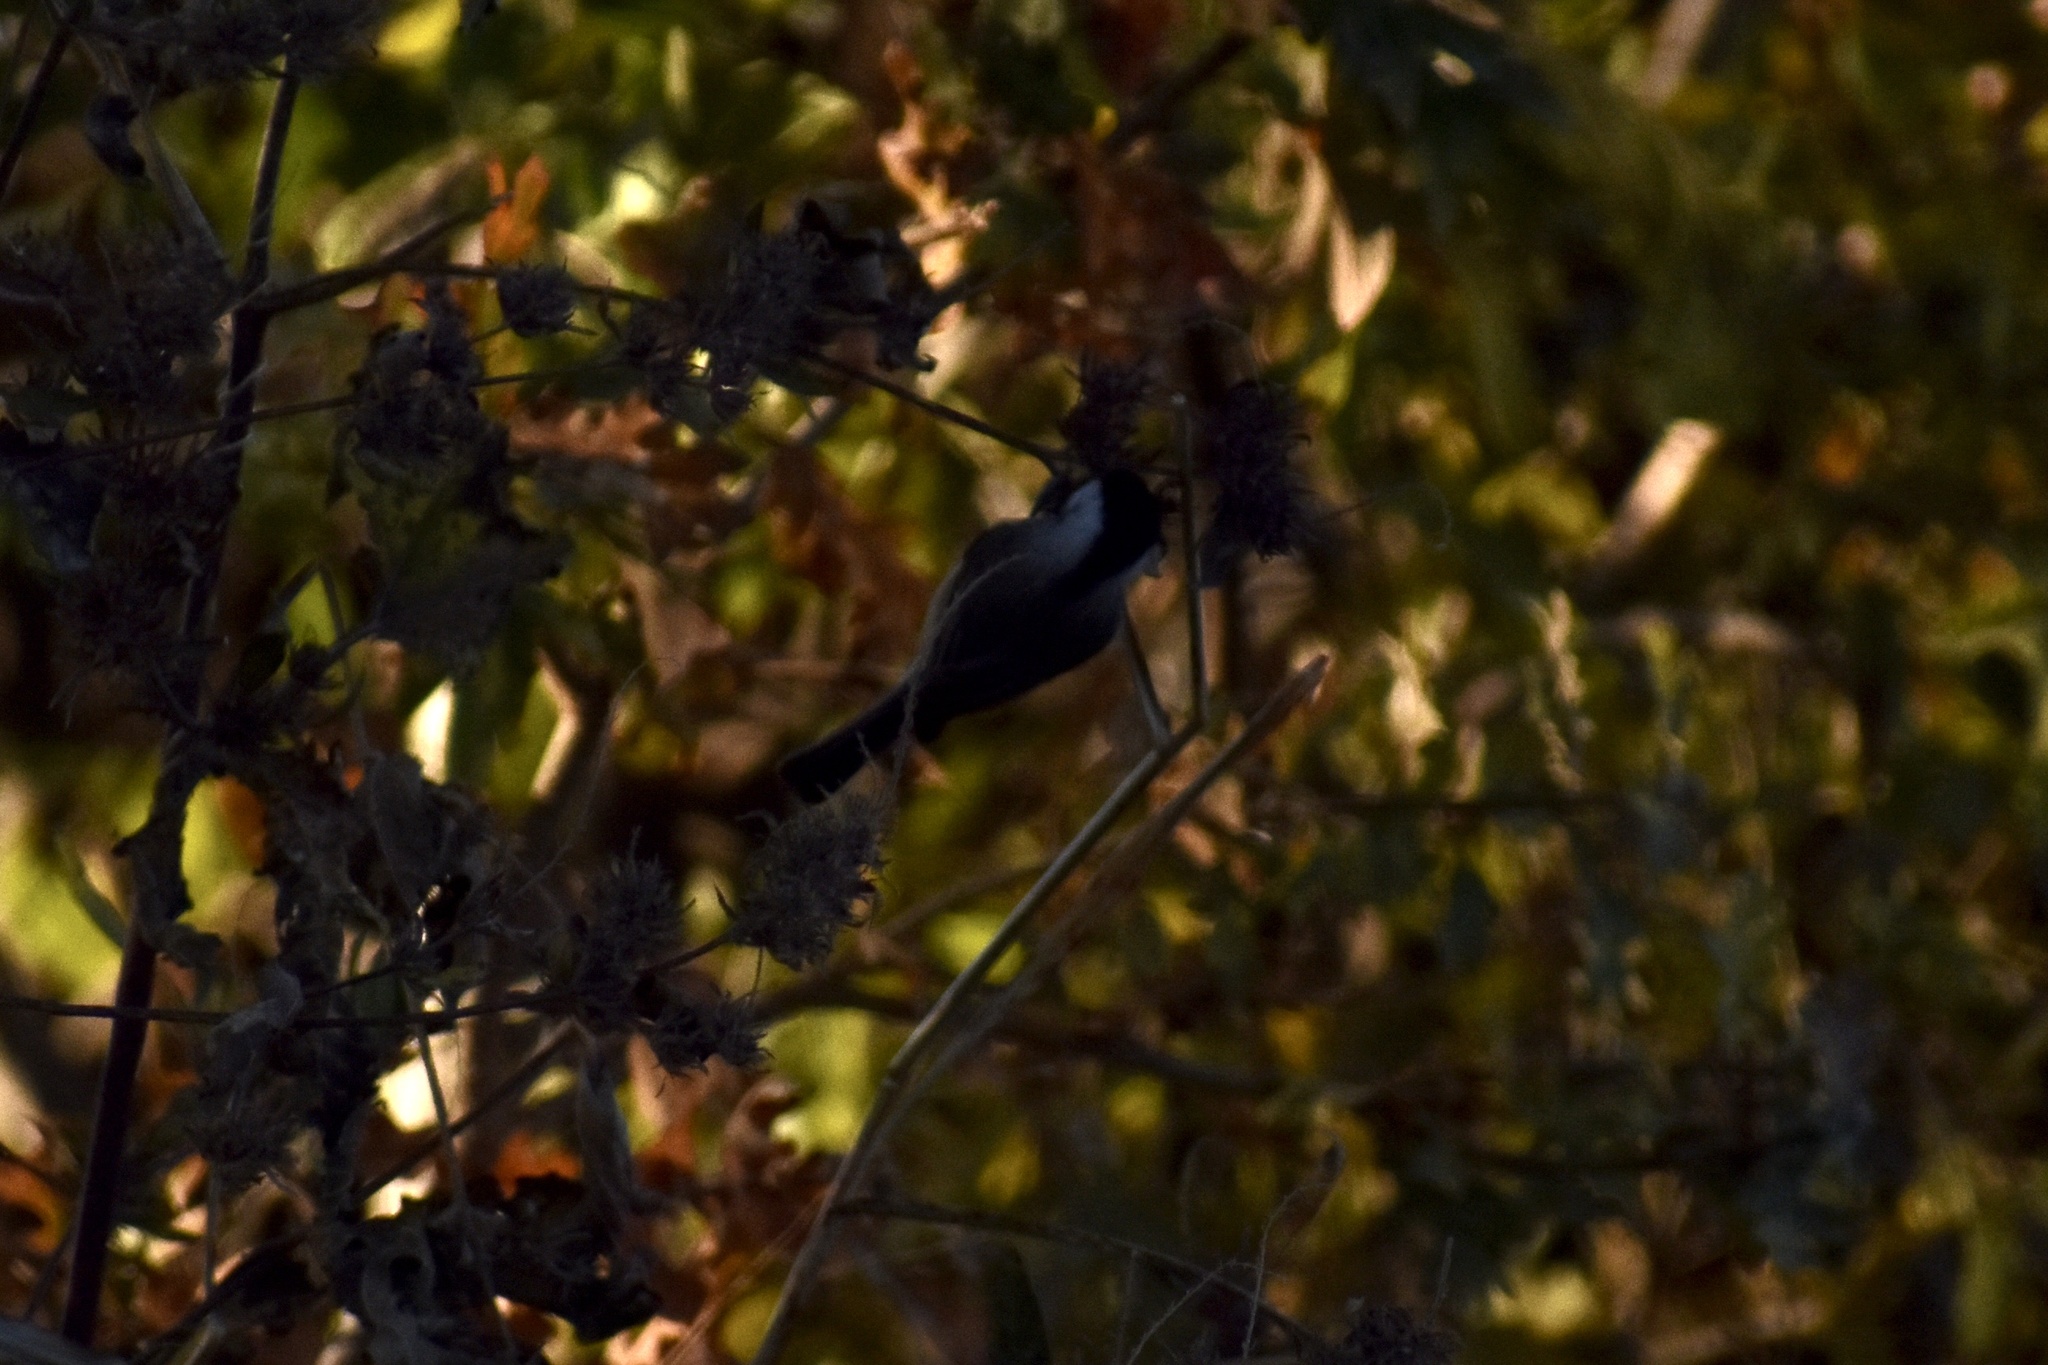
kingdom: Animalia
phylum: Chordata
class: Aves
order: Passeriformes
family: Paridae
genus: Poecile
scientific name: Poecile carolinensis
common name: Carolina chickadee
